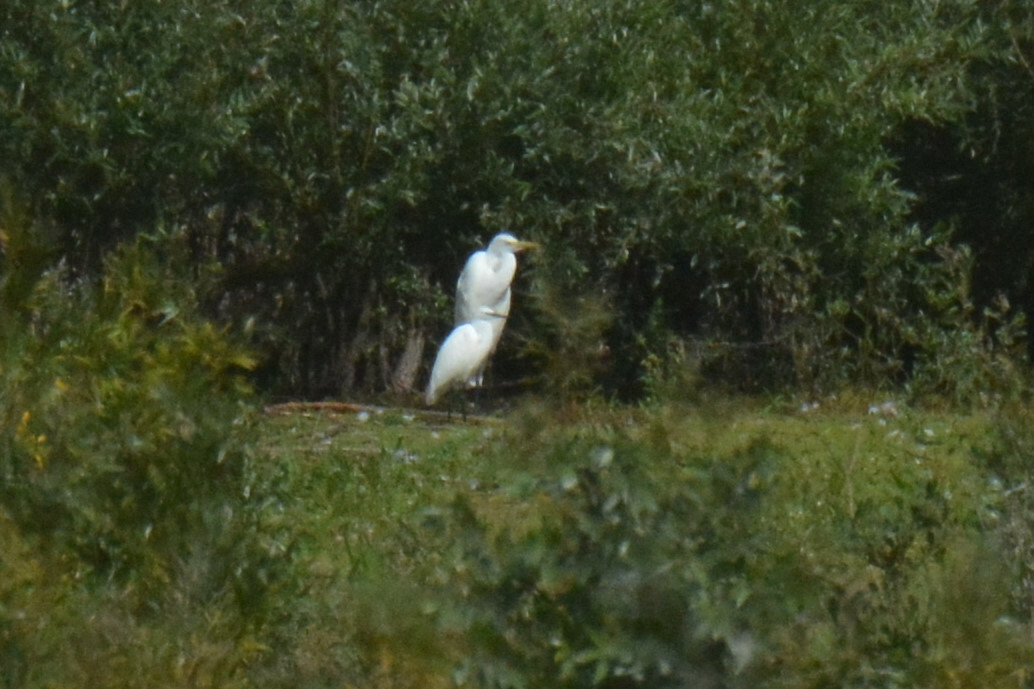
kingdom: Animalia
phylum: Chordata
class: Aves
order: Pelecaniformes
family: Ardeidae
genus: Ardea
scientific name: Ardea alba
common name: Great egret
